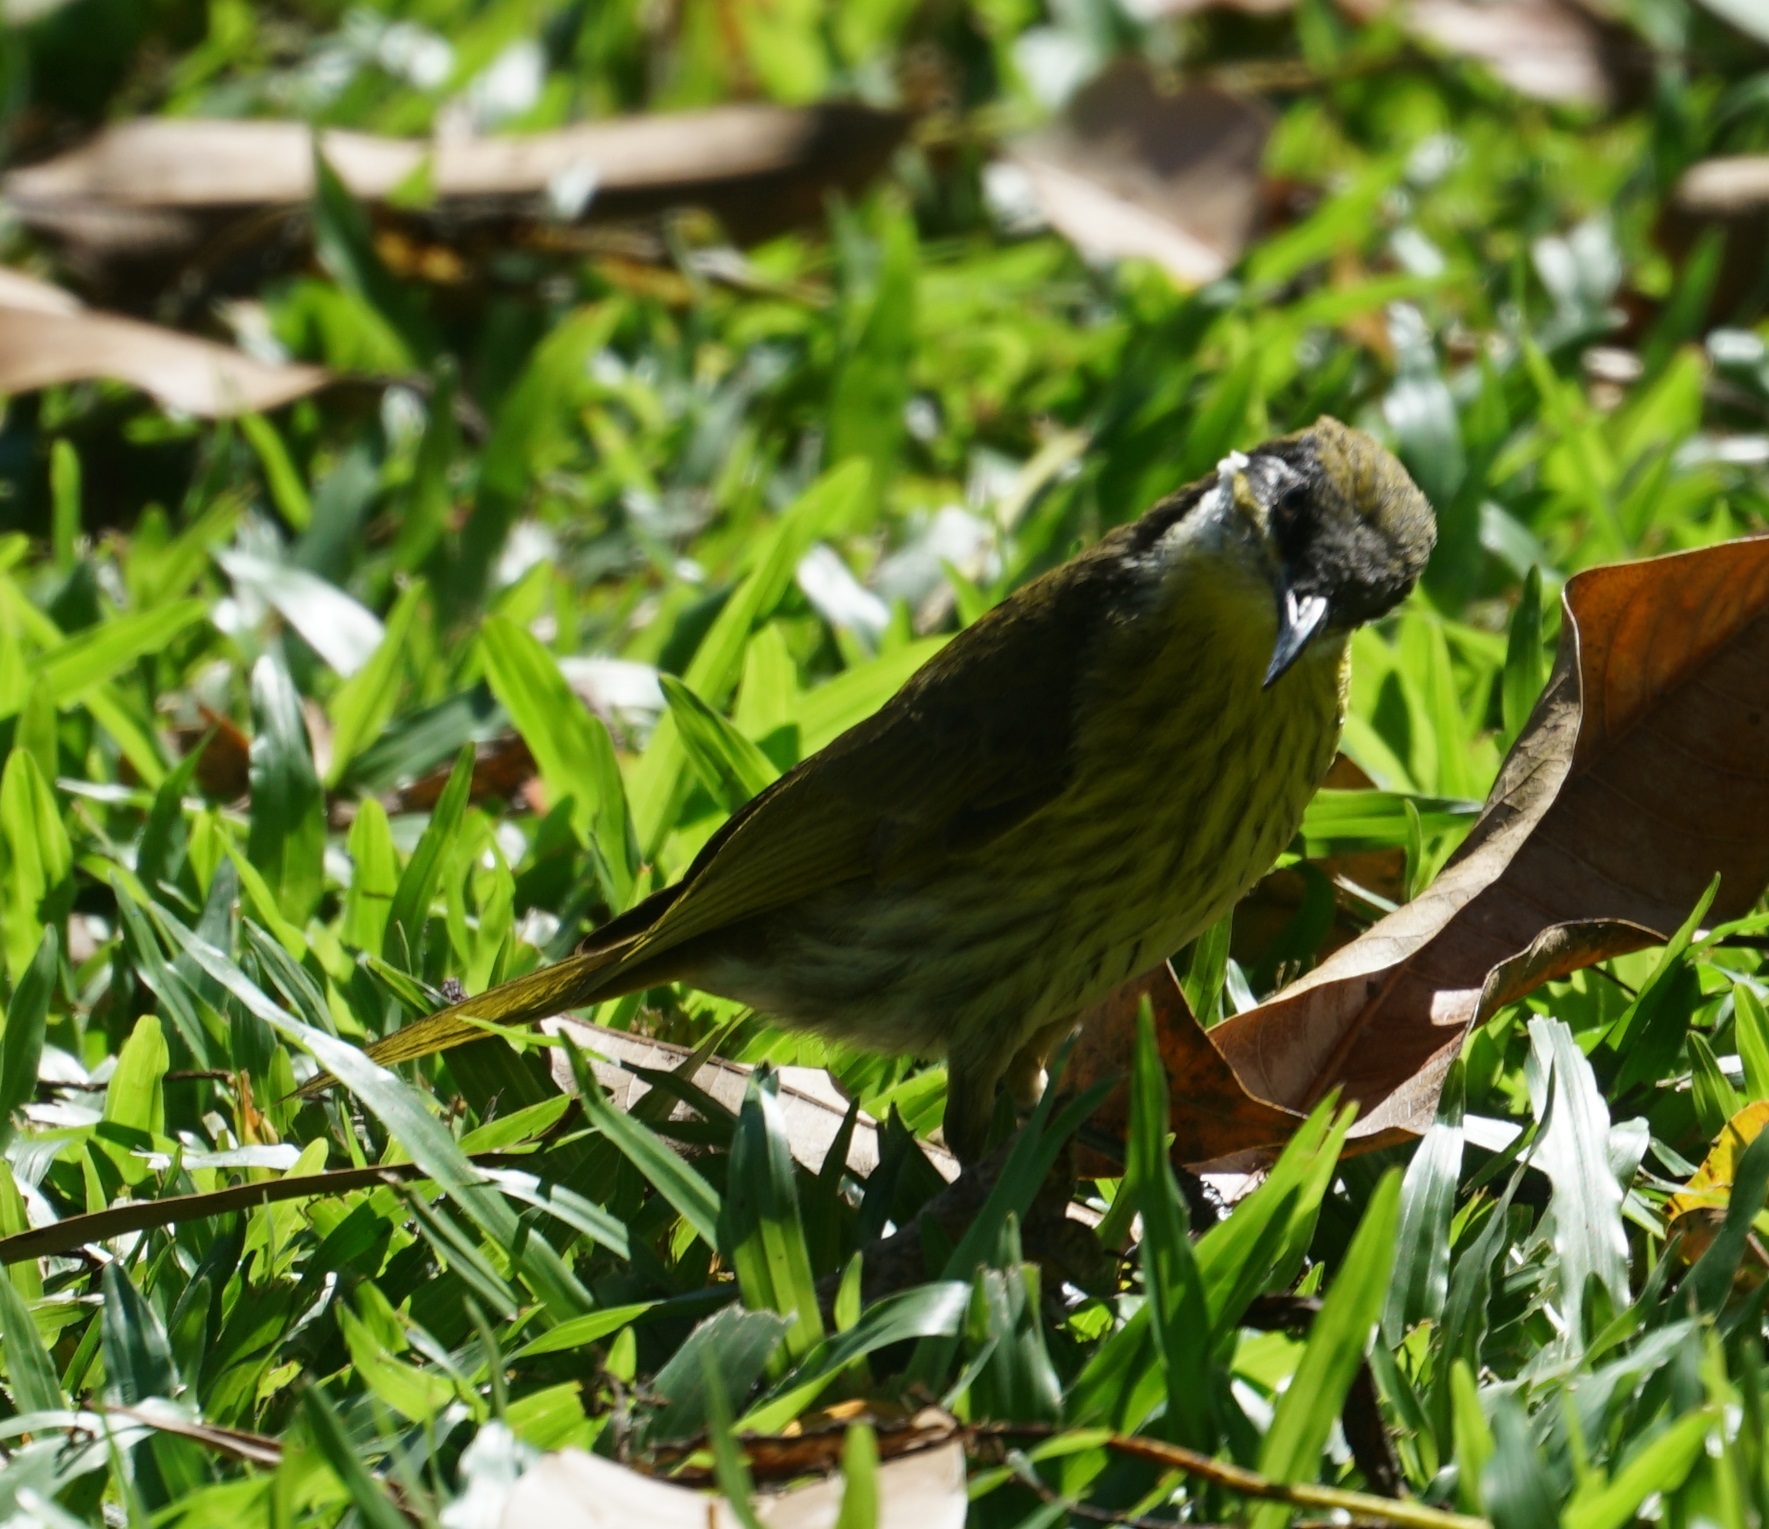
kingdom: Animalia
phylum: Chordata
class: Aves
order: Passeriformes
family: Meliphagidae
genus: Gavicalis
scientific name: Gavicalis versicolor
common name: Varied honeyeater
